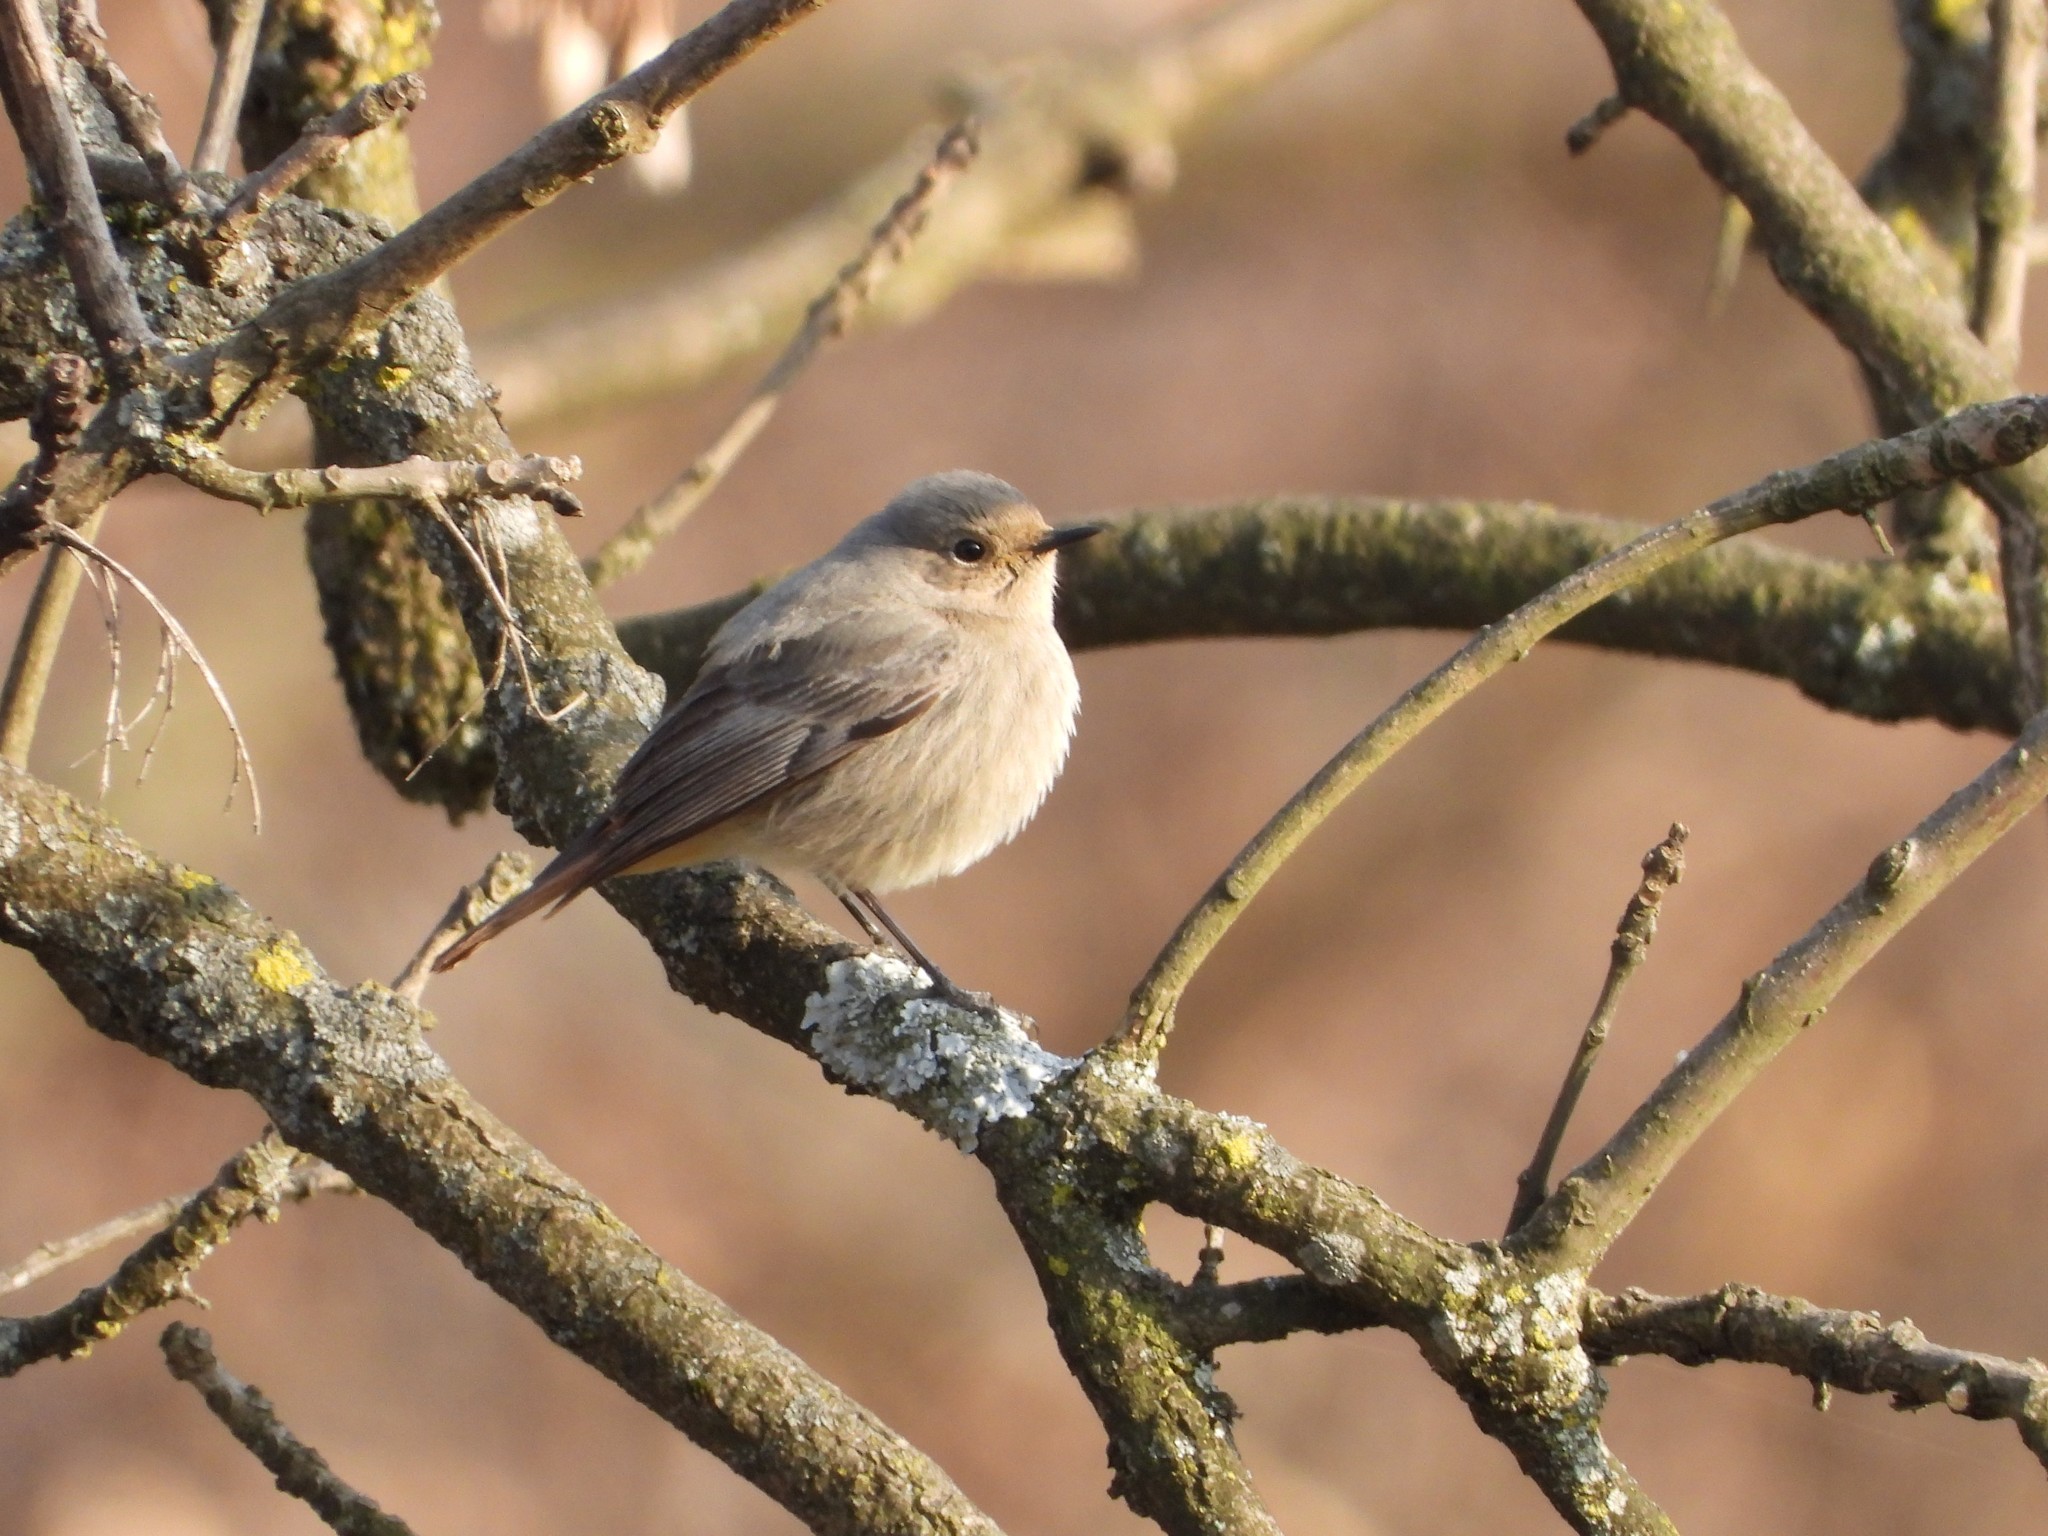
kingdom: Animalia
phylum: Chordata
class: Aves
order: Passeriformes
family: Muscicapidae
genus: Phoenicurus
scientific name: Phoenicurus ochruros
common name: Black redstart
